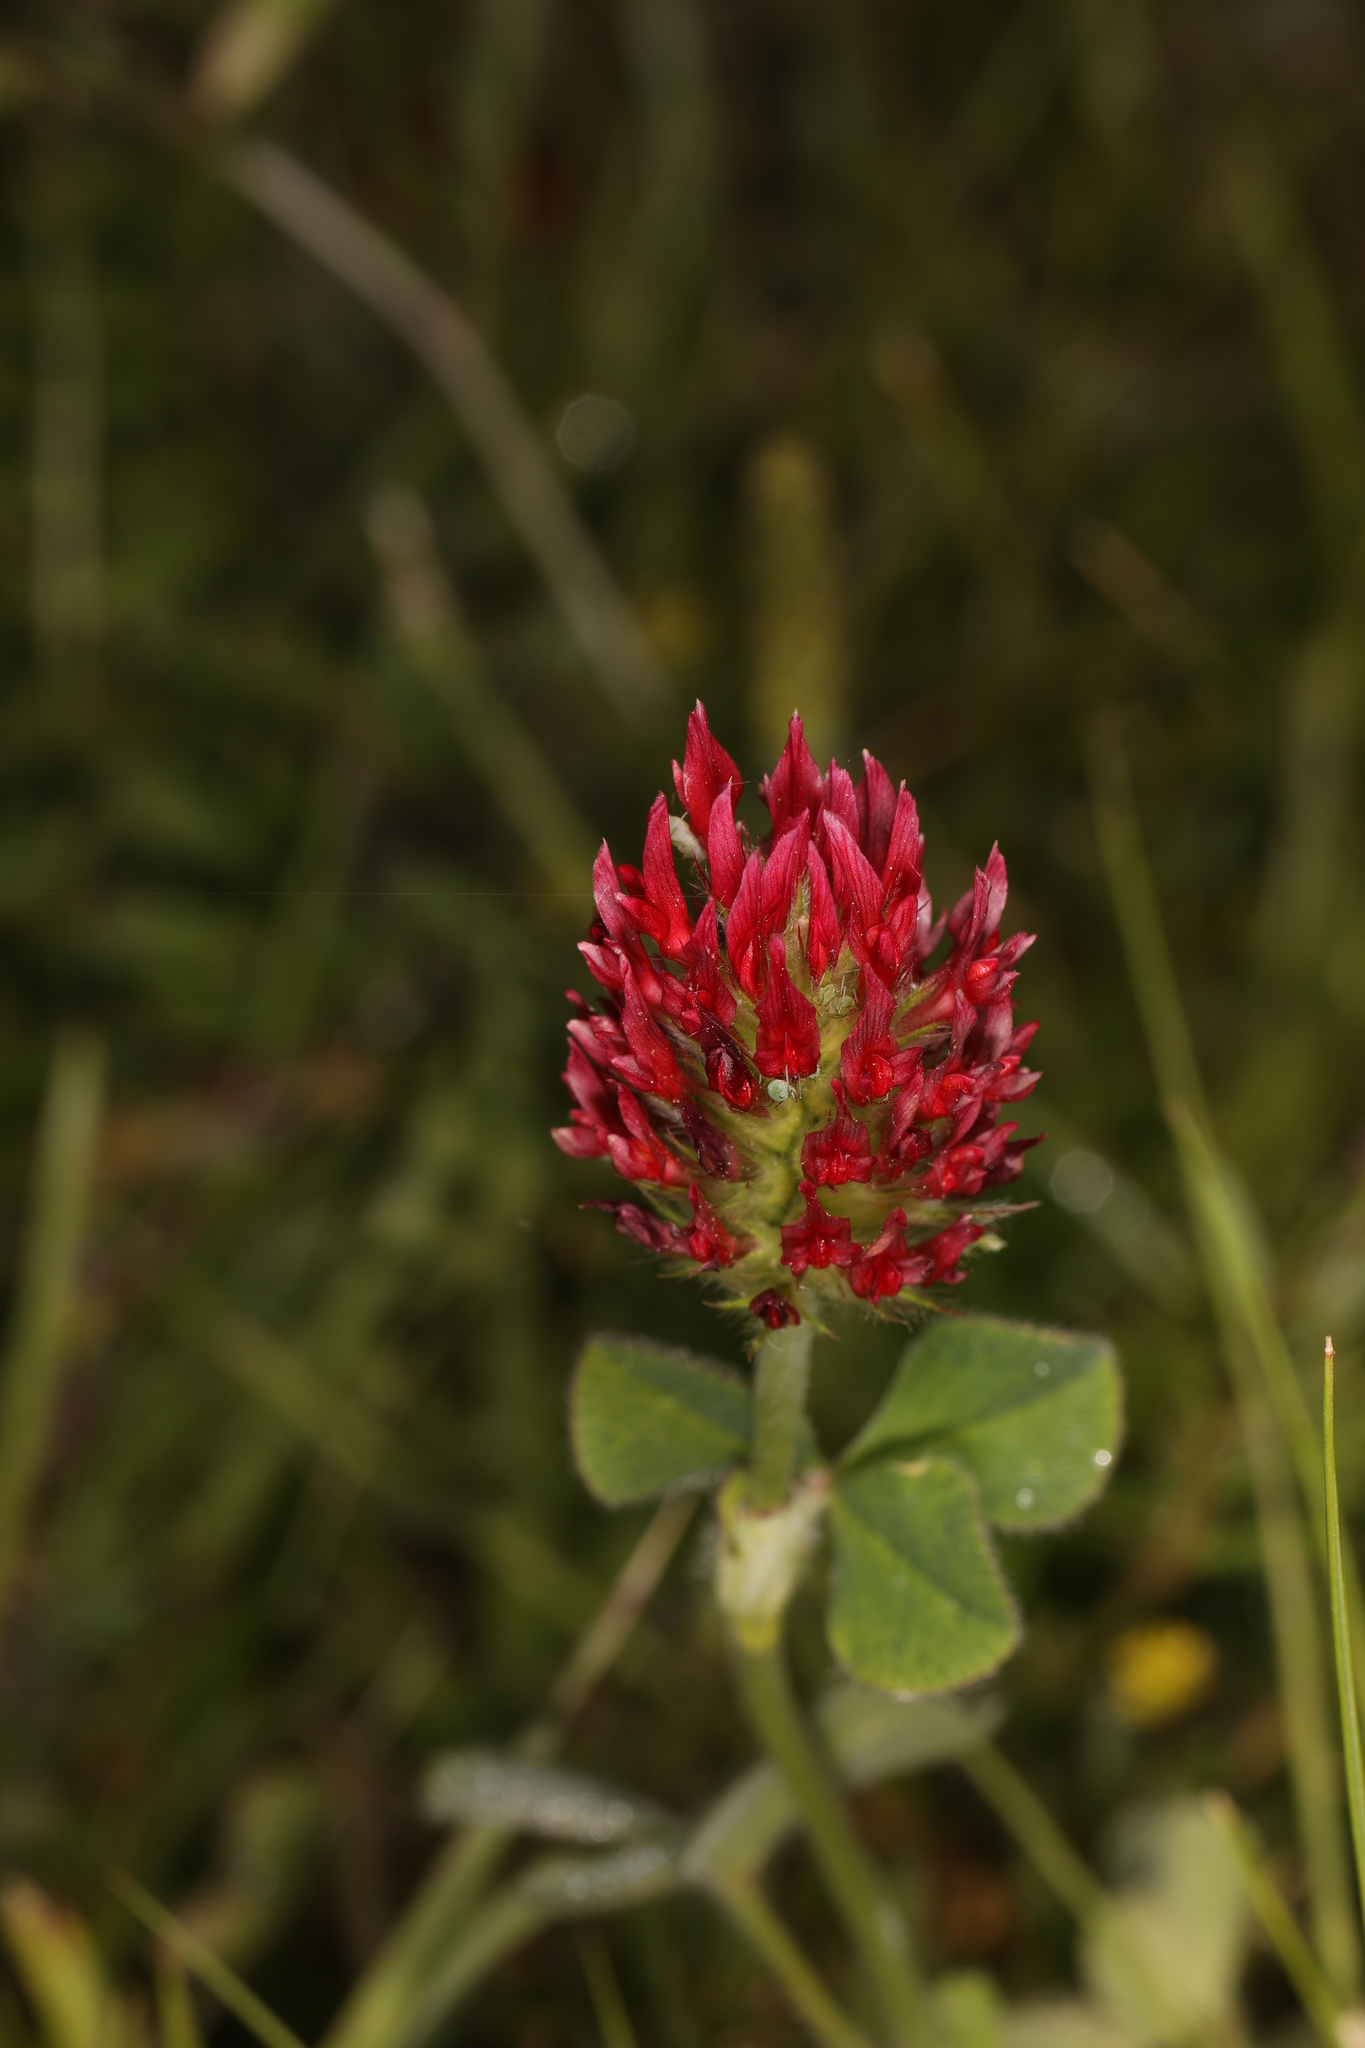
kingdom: Plantae
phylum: Tracheophyta
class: Magnoliopsida
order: Fabales
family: Fabaceae
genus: Trifolium
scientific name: Trifolium incarnatum
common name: Crimson clover
